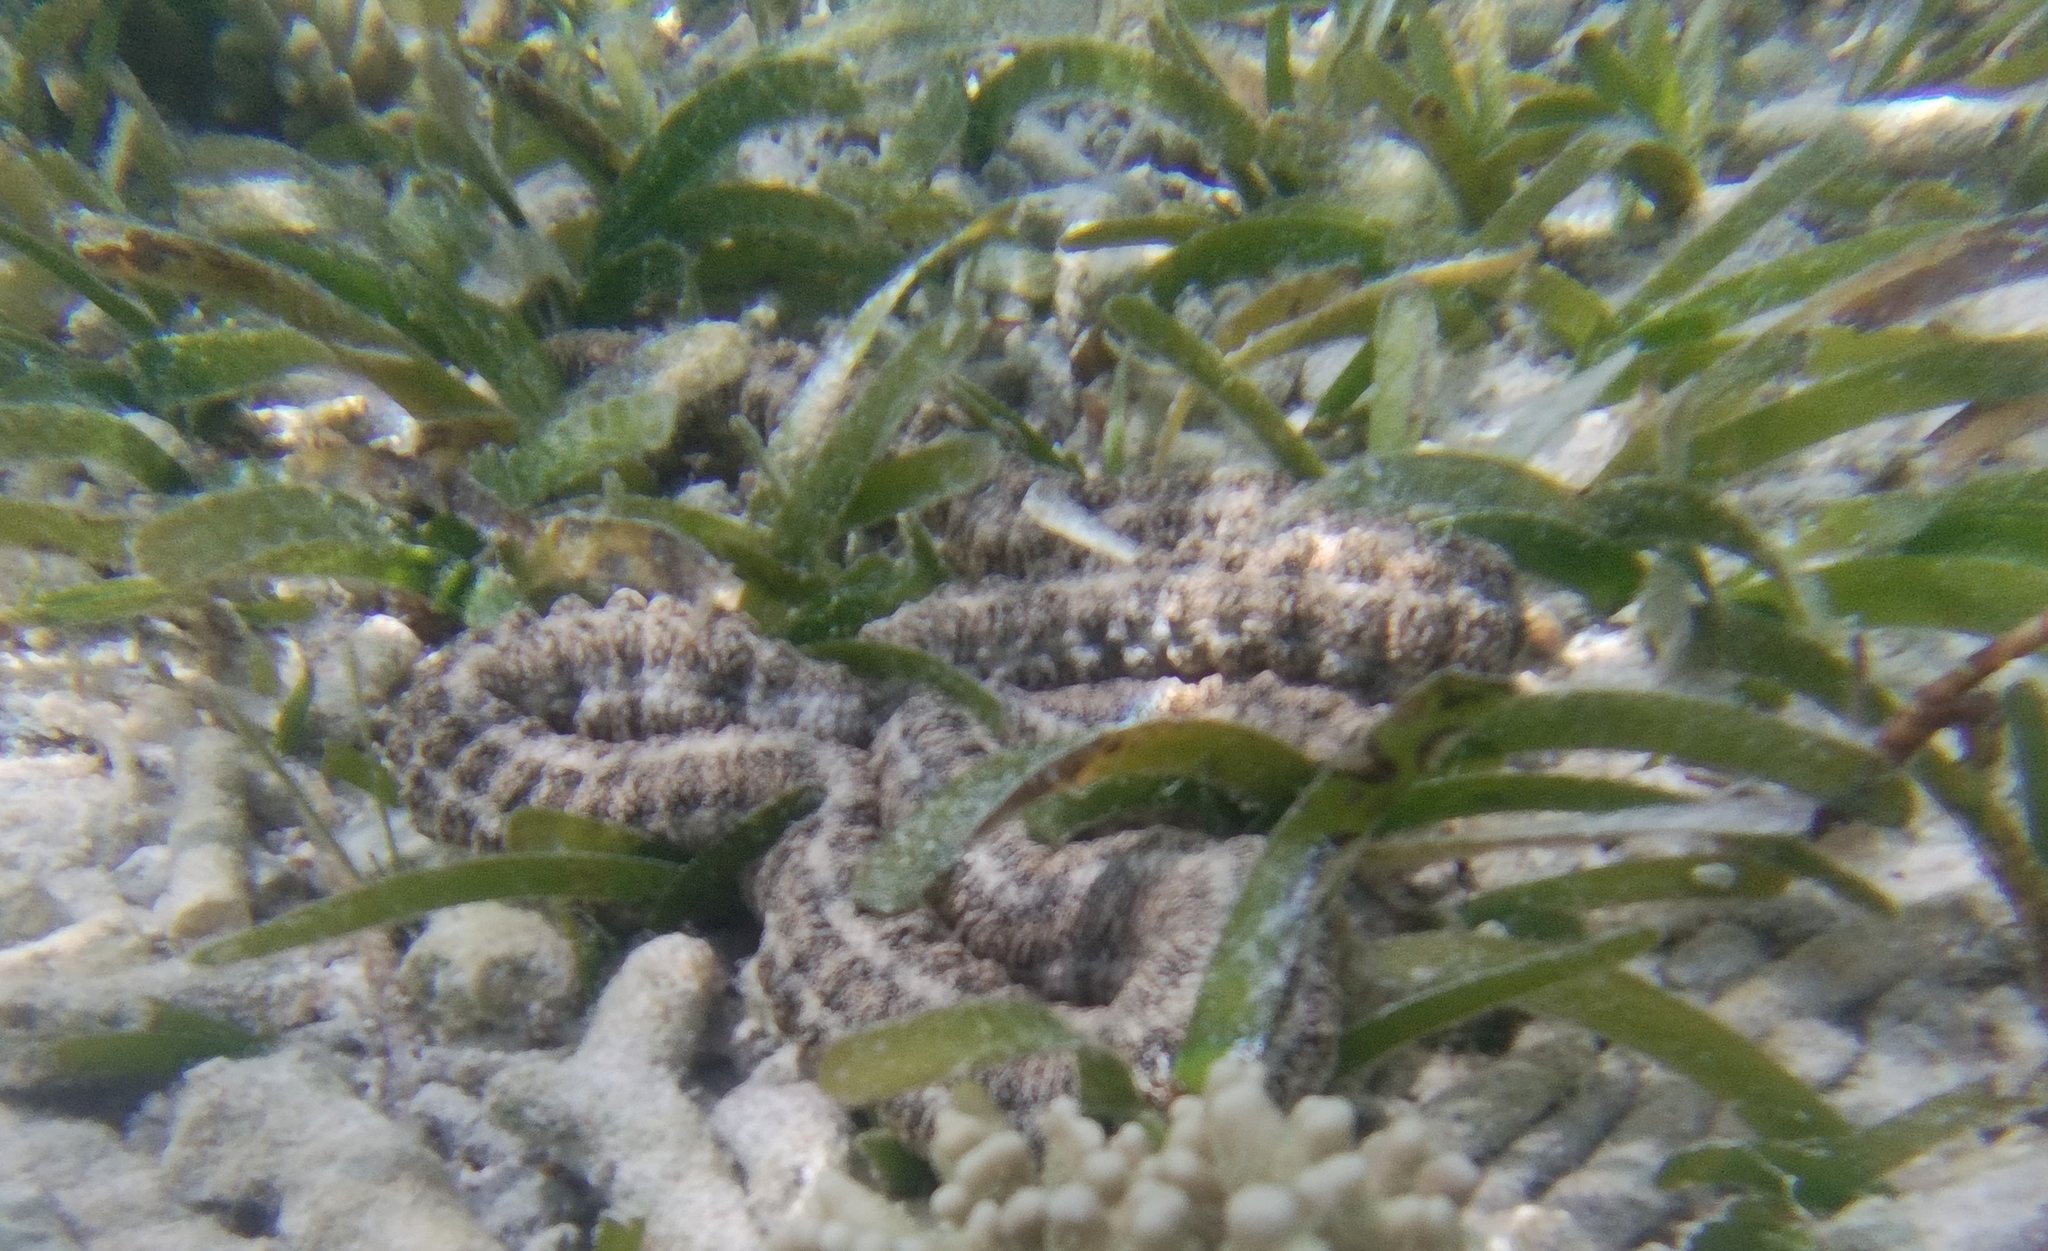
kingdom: Animalia
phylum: Echinodermata
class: Holothuroidea
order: Apodida
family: Synaptidae
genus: Synapta
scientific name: Synapta maculata
